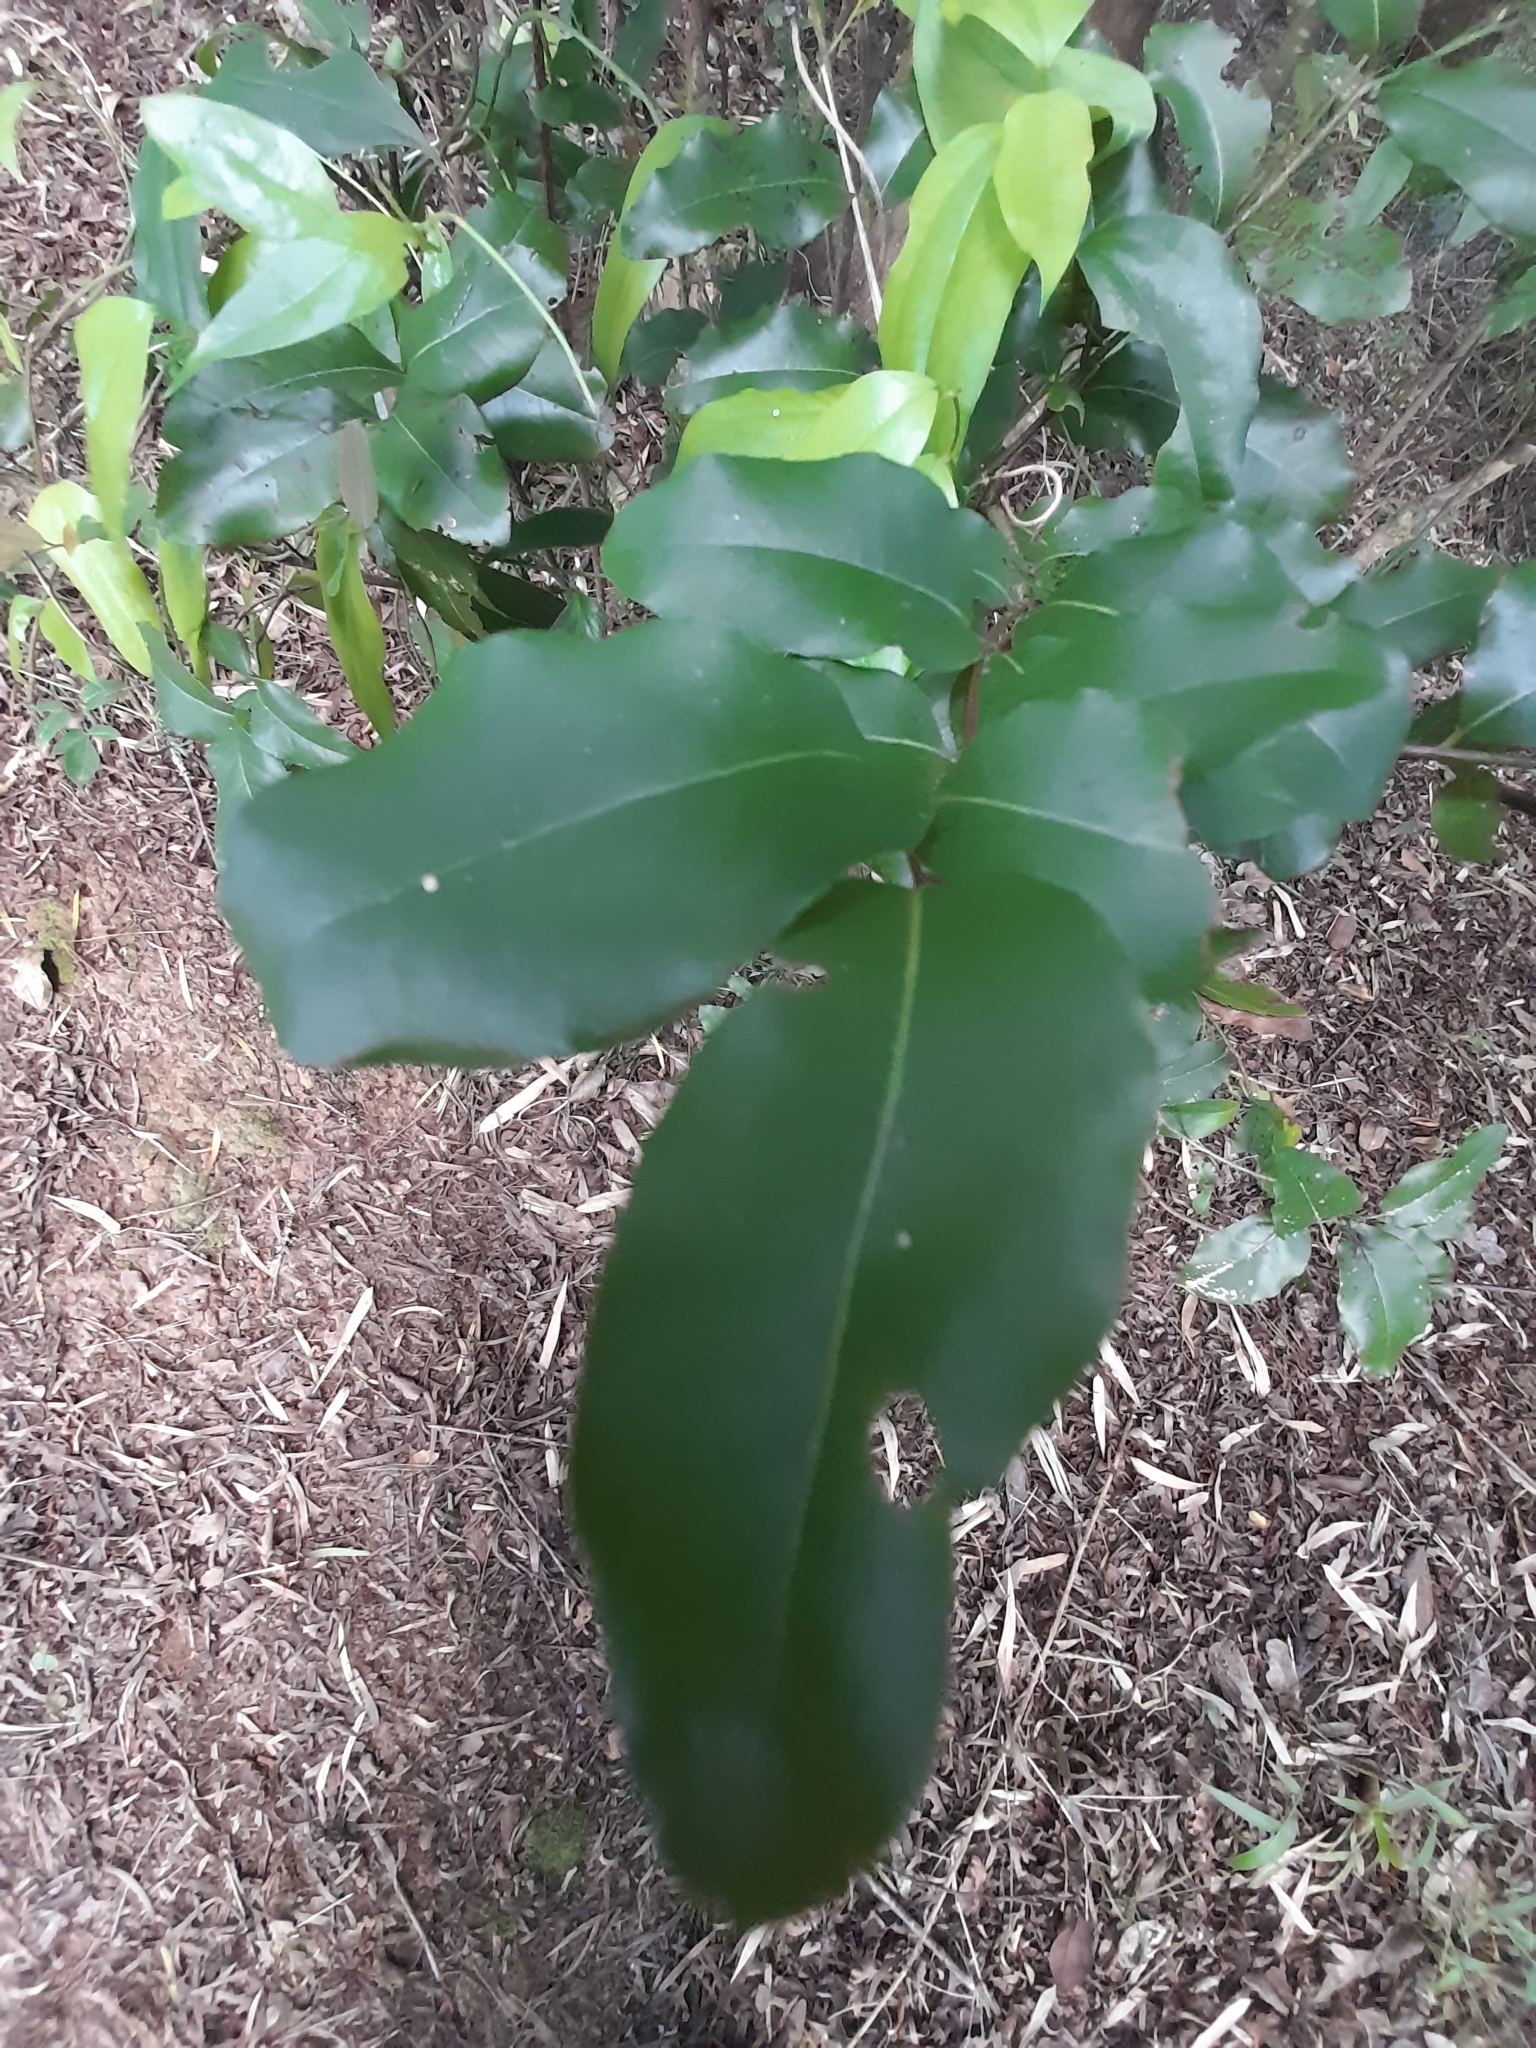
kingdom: Plantae
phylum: Tracheophyta
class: Magnoliopsida
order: Laurales
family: Lauraceae
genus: Cryptocarya
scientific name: Cryptocarya alba
